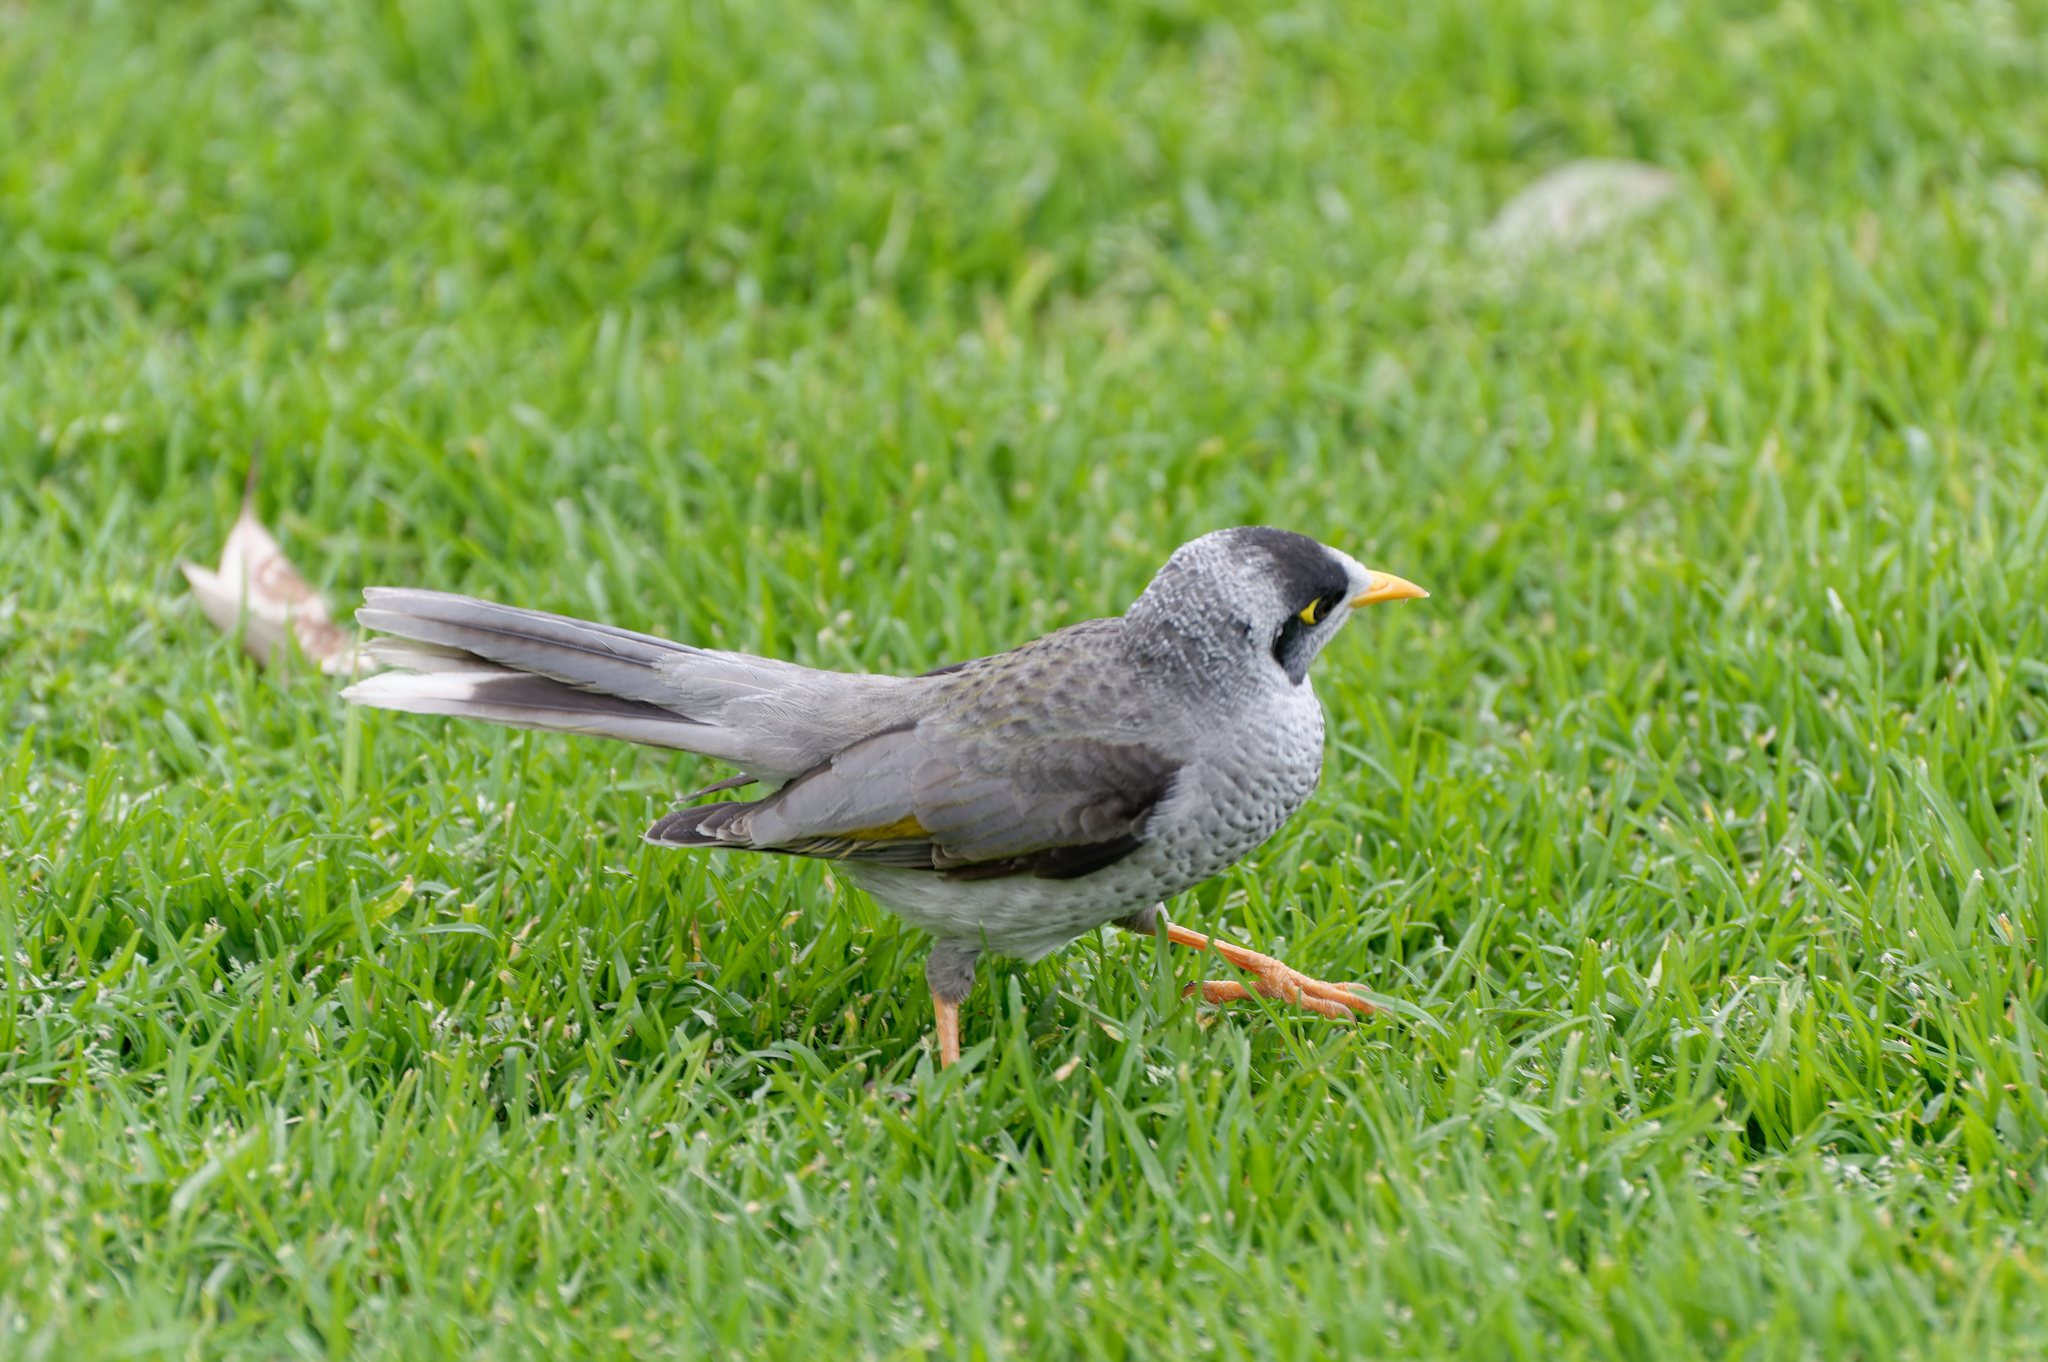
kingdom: Animalia
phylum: Chordata
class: Aves
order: Passeriformes
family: Meliphagidae
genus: Manorina
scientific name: Manorina melanocephala
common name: Noisy miner
